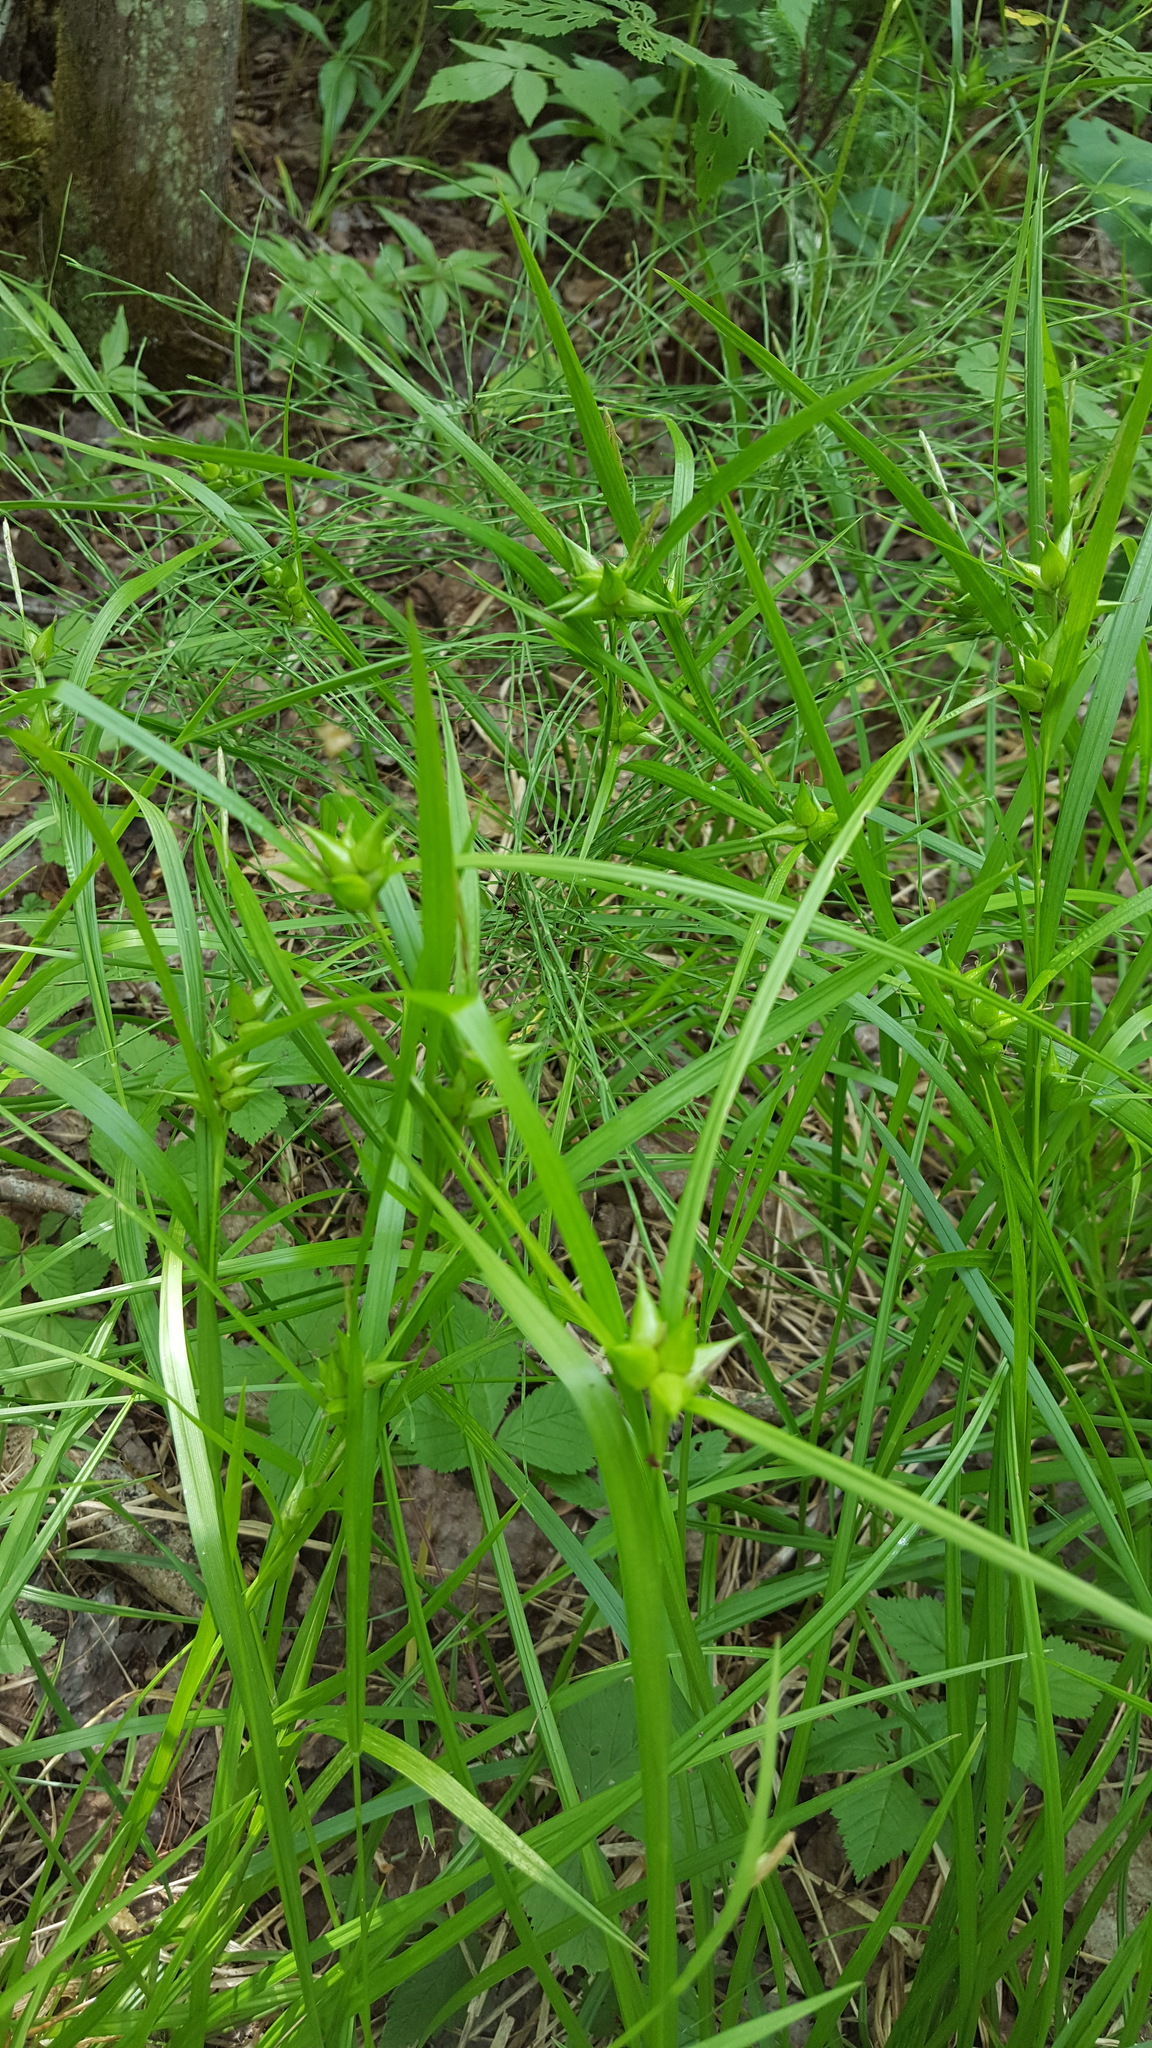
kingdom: Plantae
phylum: Tracheophyta
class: Liliopsida
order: Poales
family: Cyperaceae
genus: Carex
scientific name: Carex intumescens
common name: Greater bladder sedge
